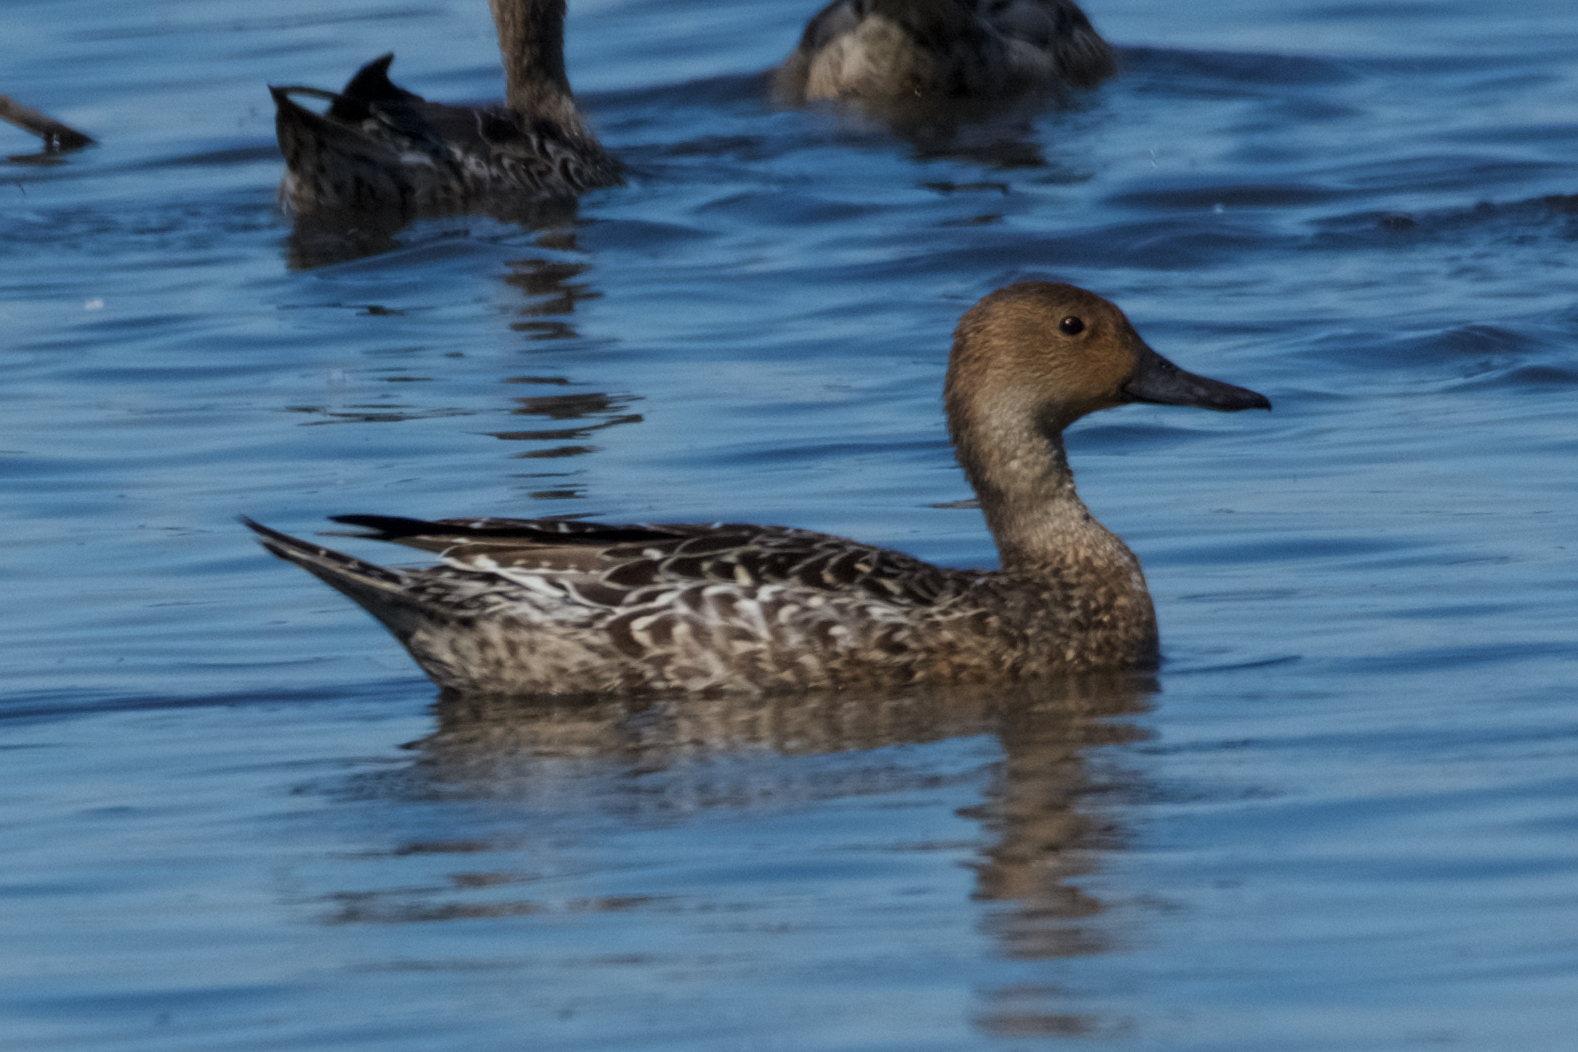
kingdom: Animalia
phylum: Chordata
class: Aves
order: Anseriformes
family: Anatidae
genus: Anas
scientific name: Anas acuta
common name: Northern pintail
